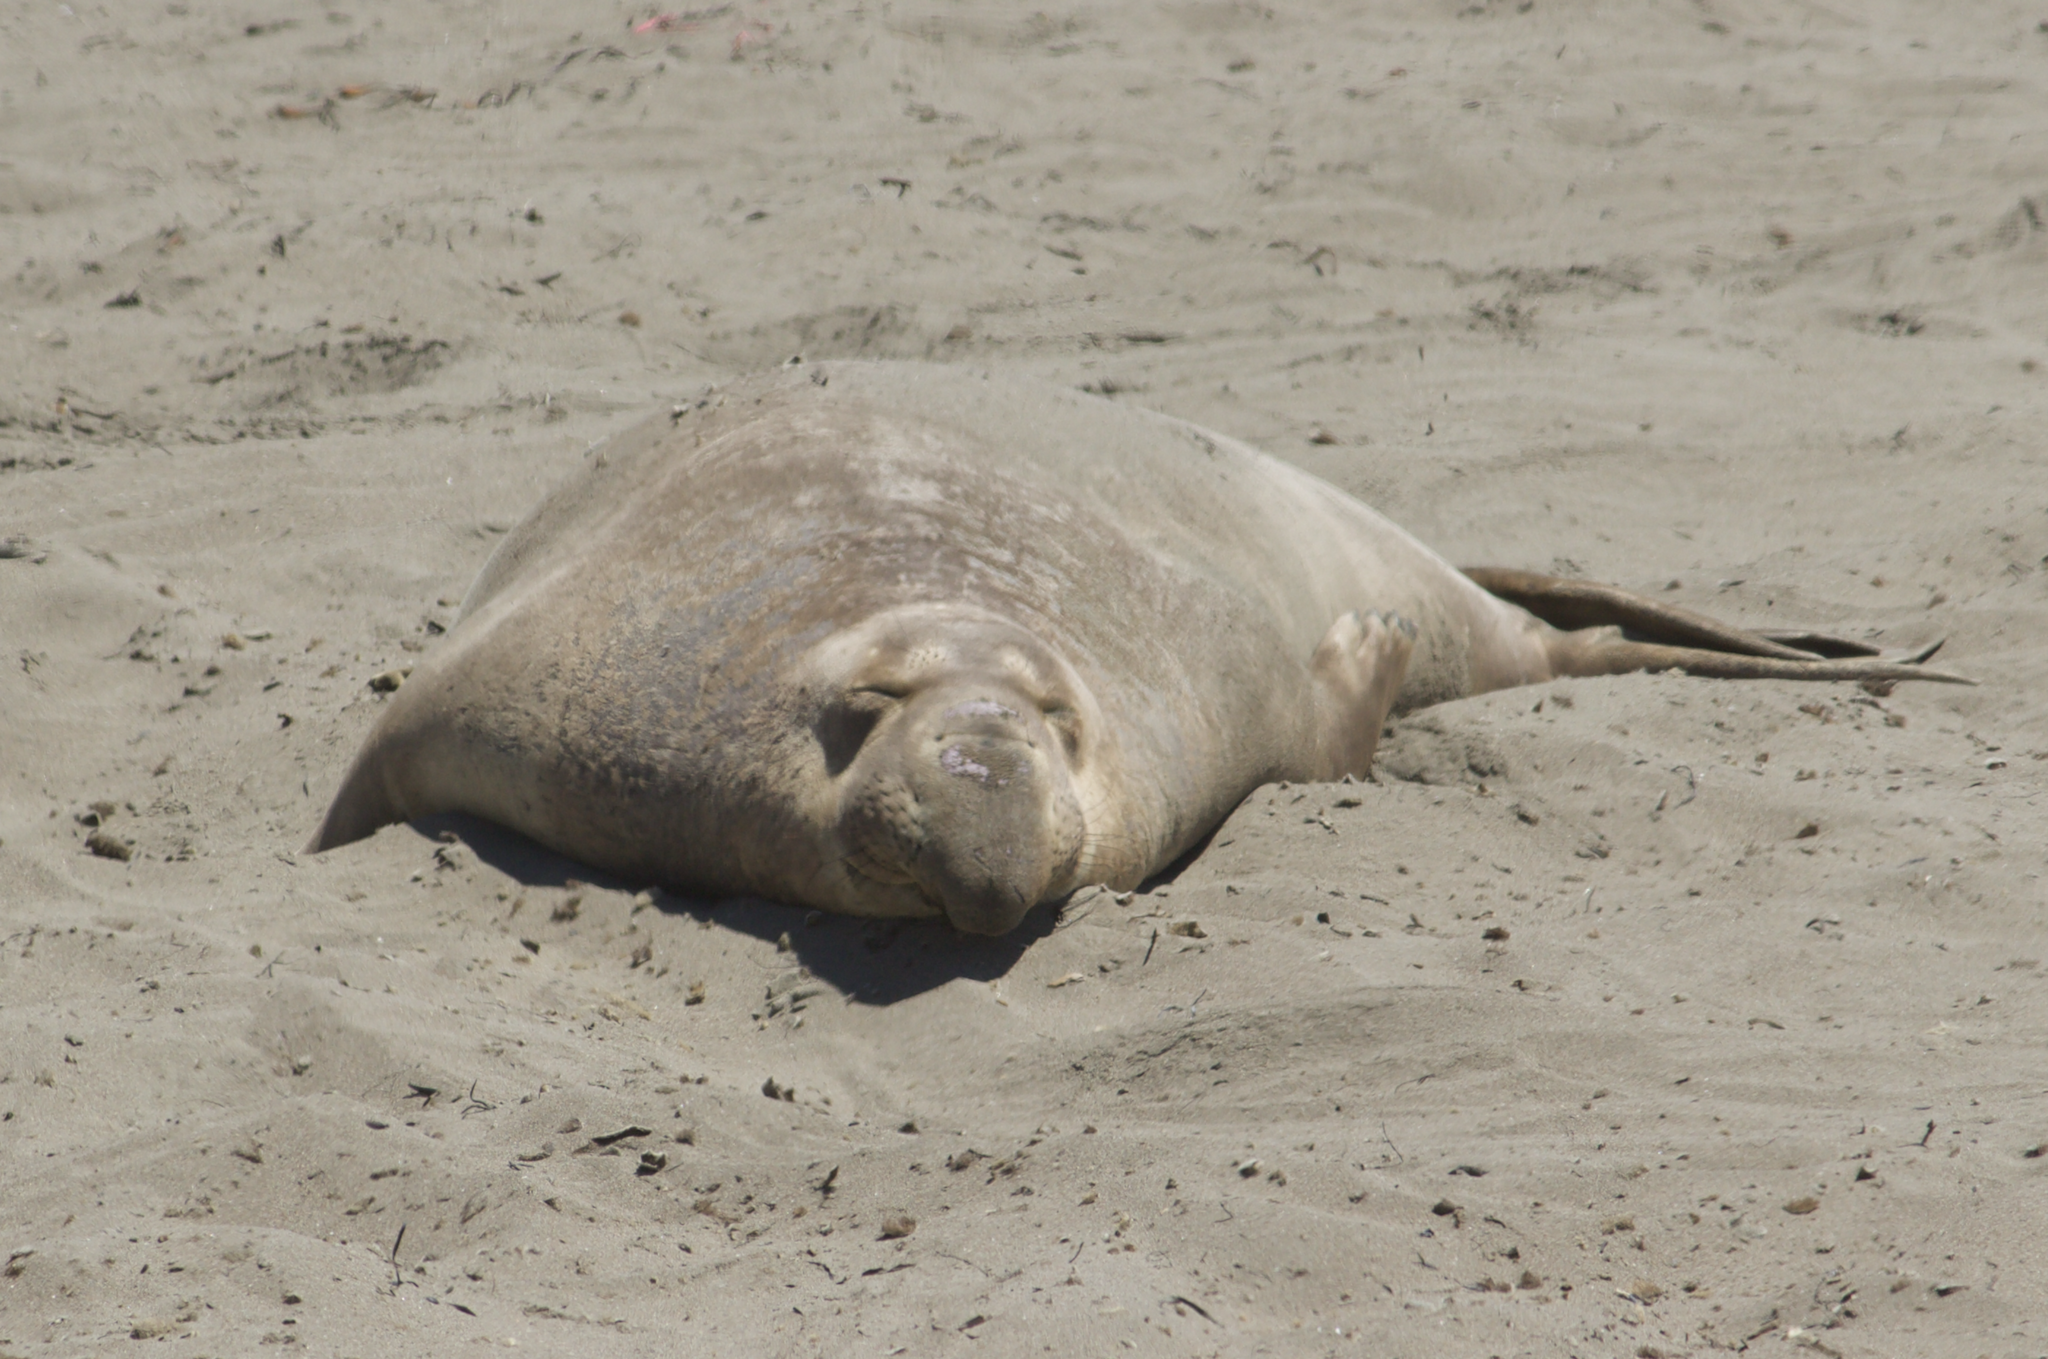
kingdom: Animalia
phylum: Chordata
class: Mammalia
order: Carnivora
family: Phocidae
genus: Mirounga
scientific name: Mirounga angustirostris
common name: Northern elephant seal
